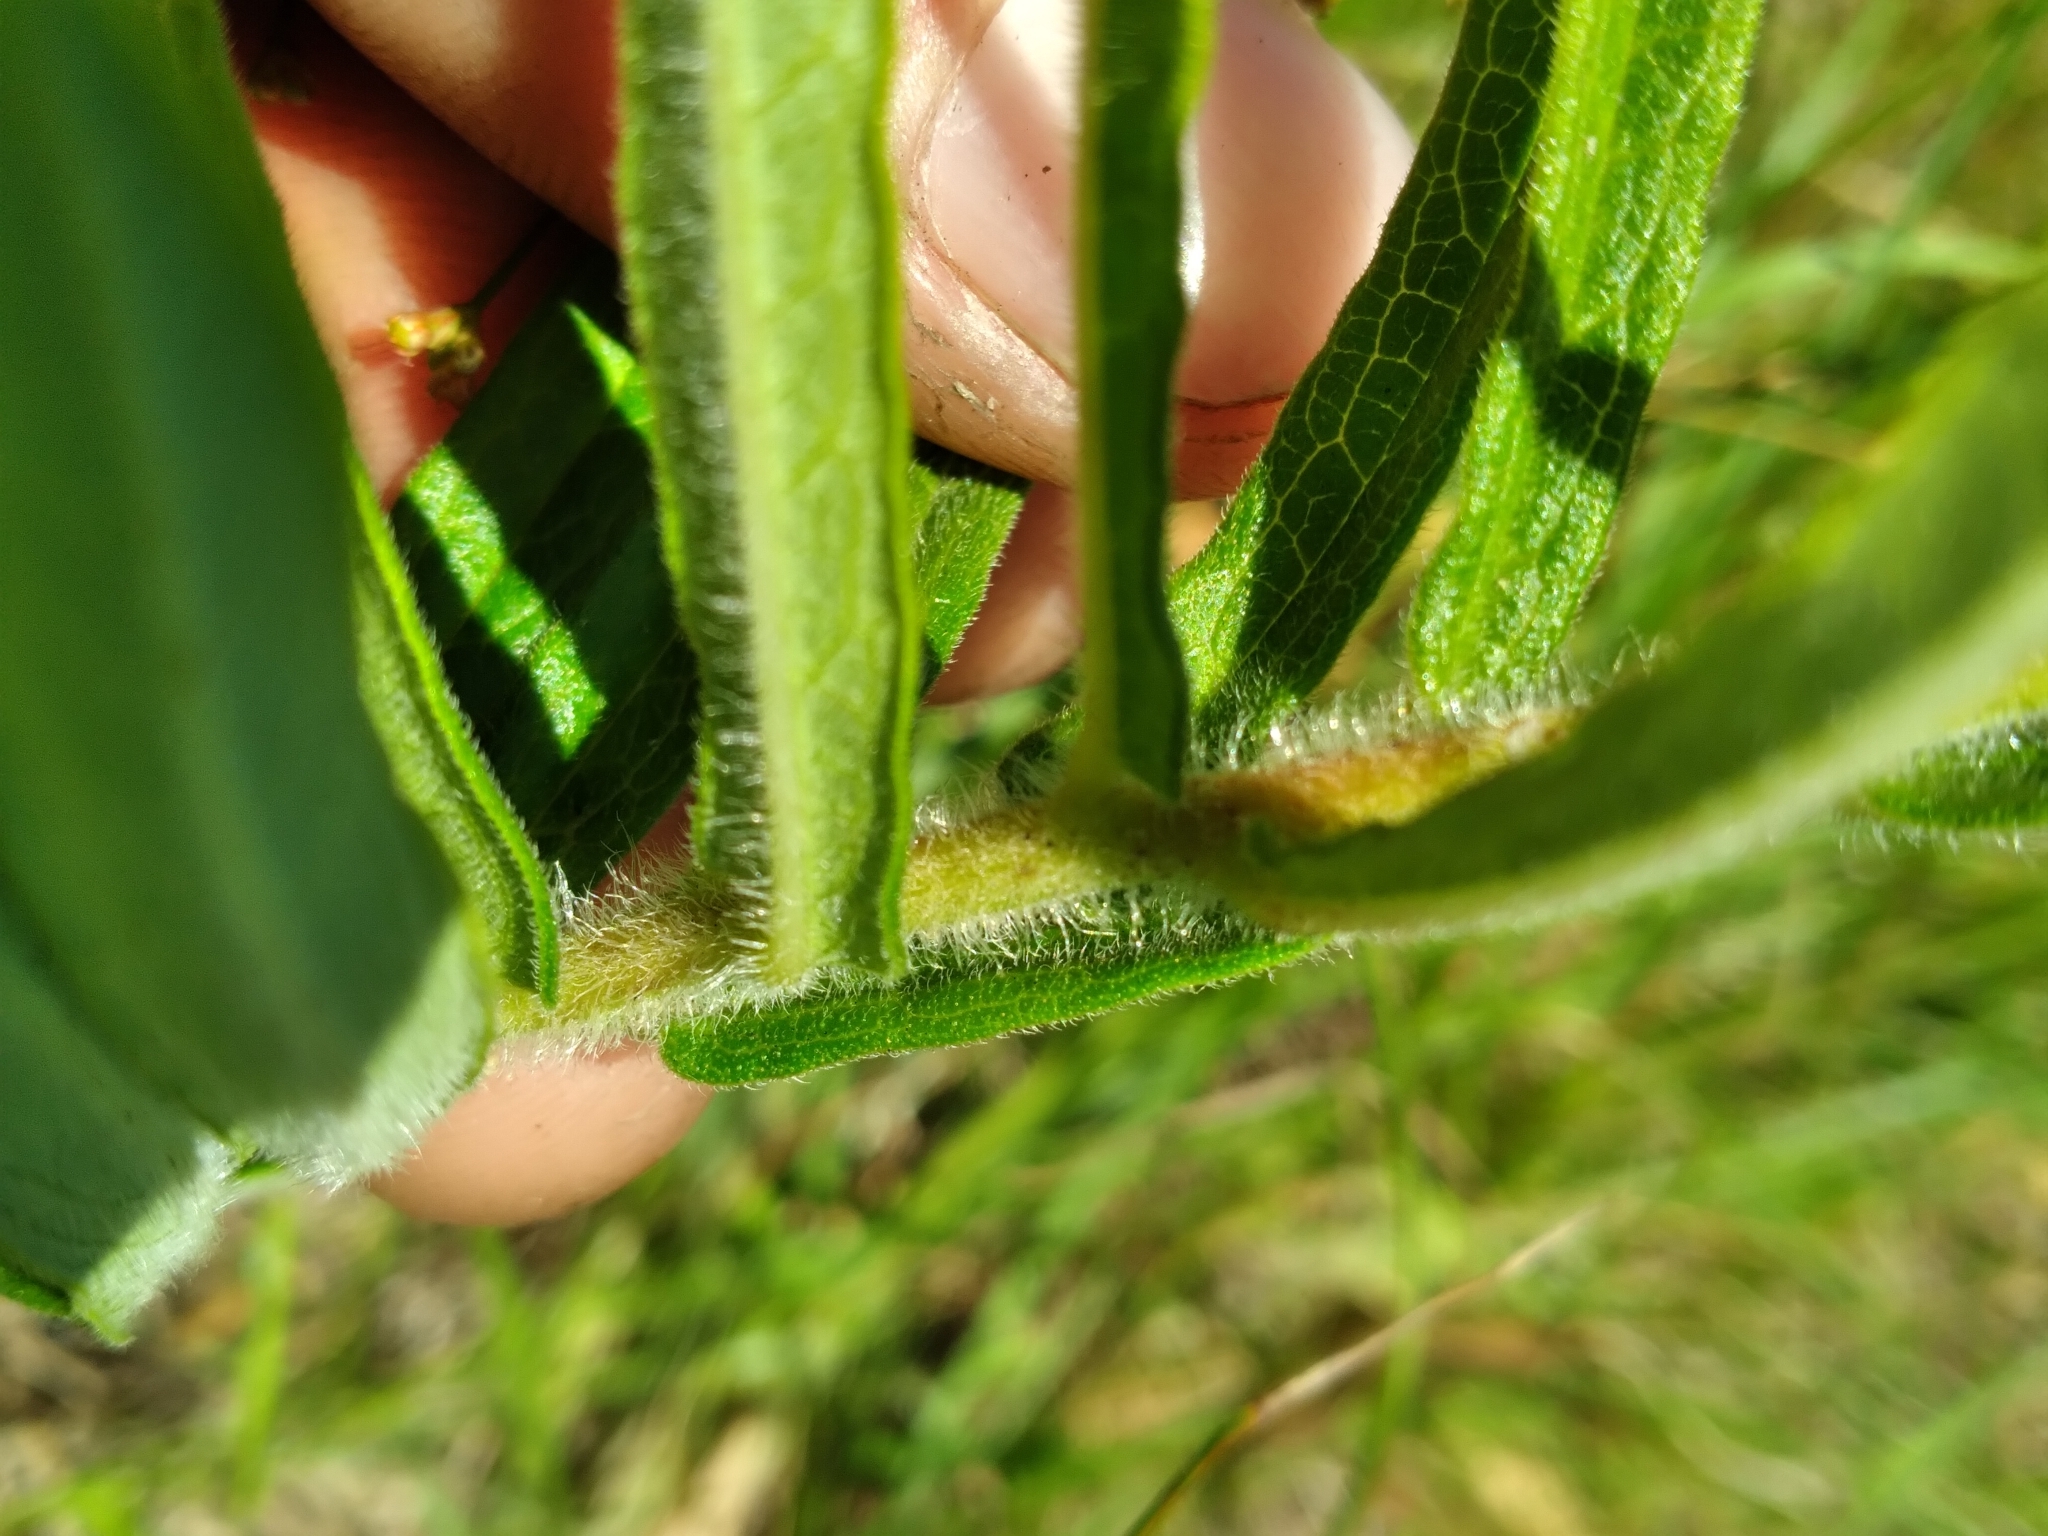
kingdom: Plantae
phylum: Tracheophyta
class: Magnoliopsida
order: Gentianales
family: Apocynaceae
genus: Asclepias
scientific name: Asclepias tuberosa
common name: Butterfly milkweed
